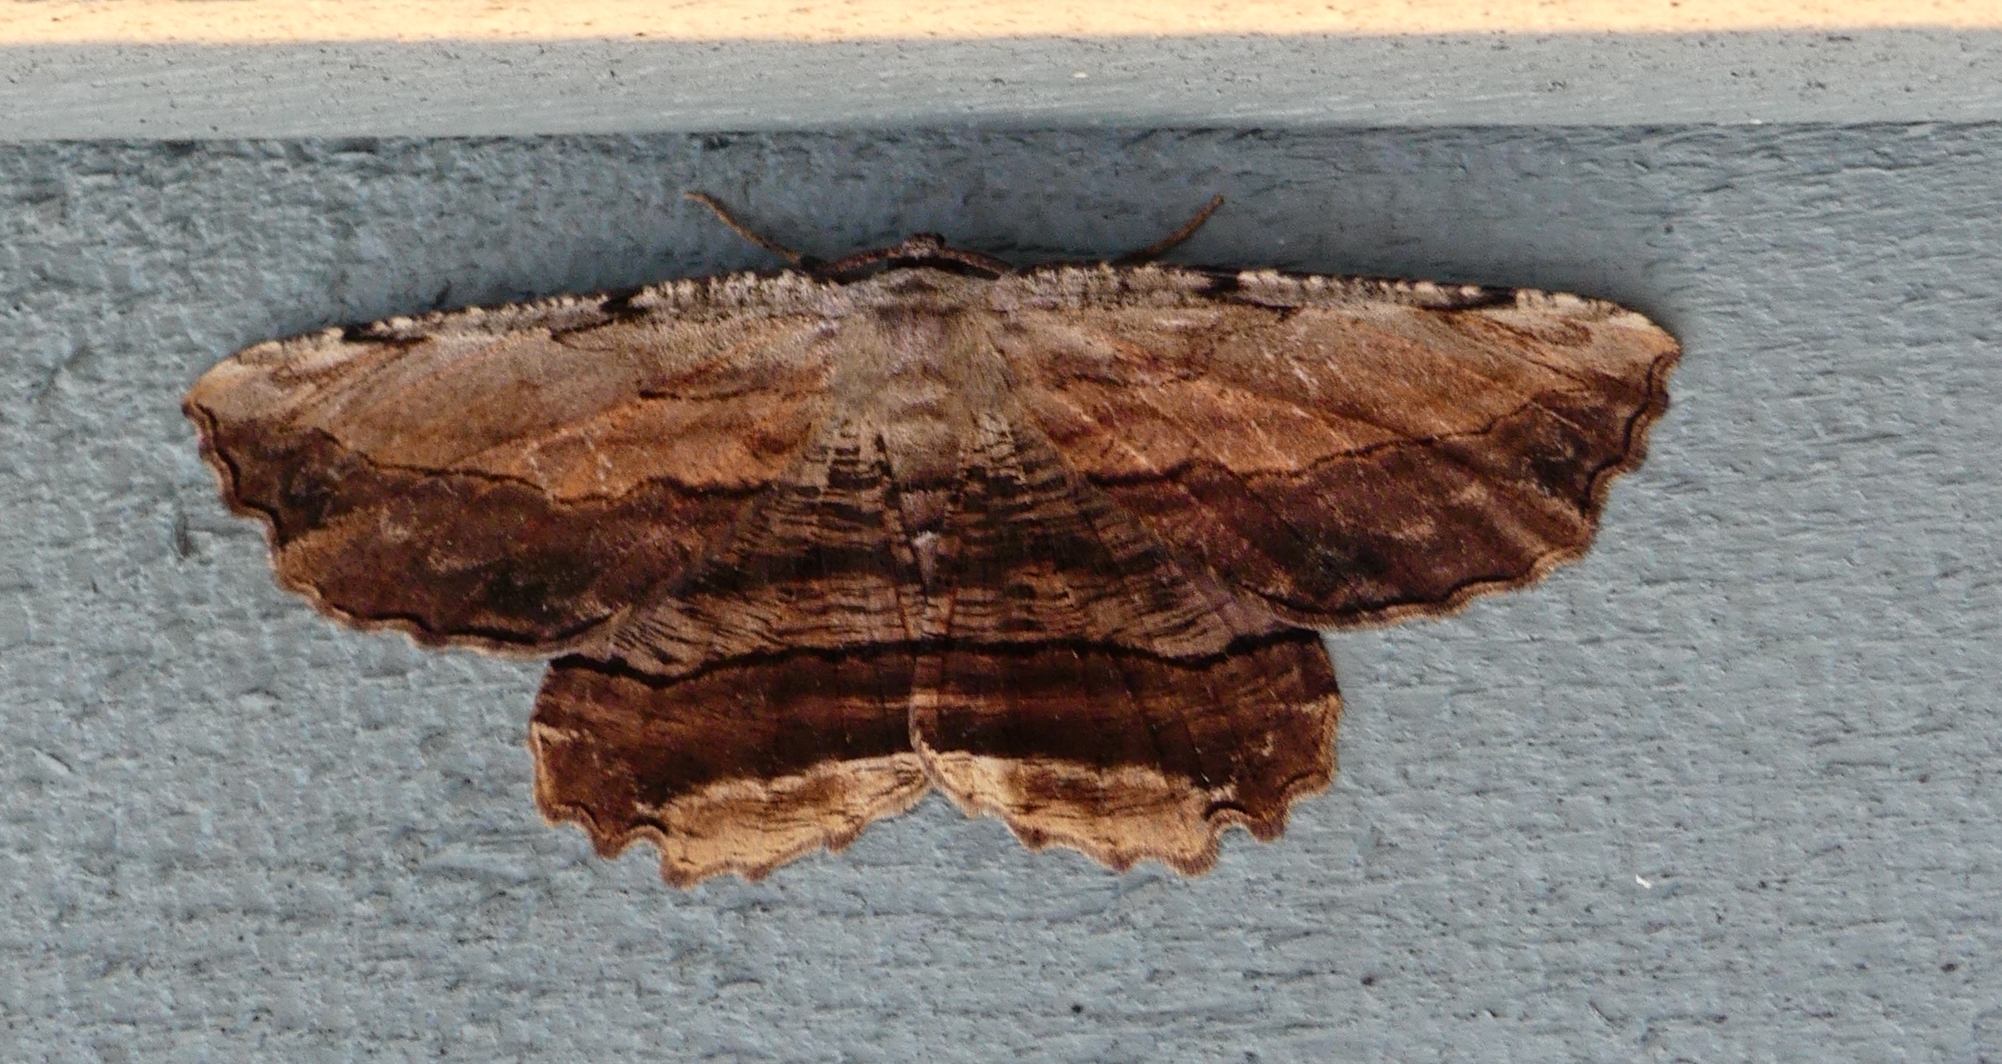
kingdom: Animalia
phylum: Arthropoda
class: Insecta
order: Lepidoptera
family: Geometridae
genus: Lytrosis
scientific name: Lytrosis unitaria
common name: Common lytrosis
